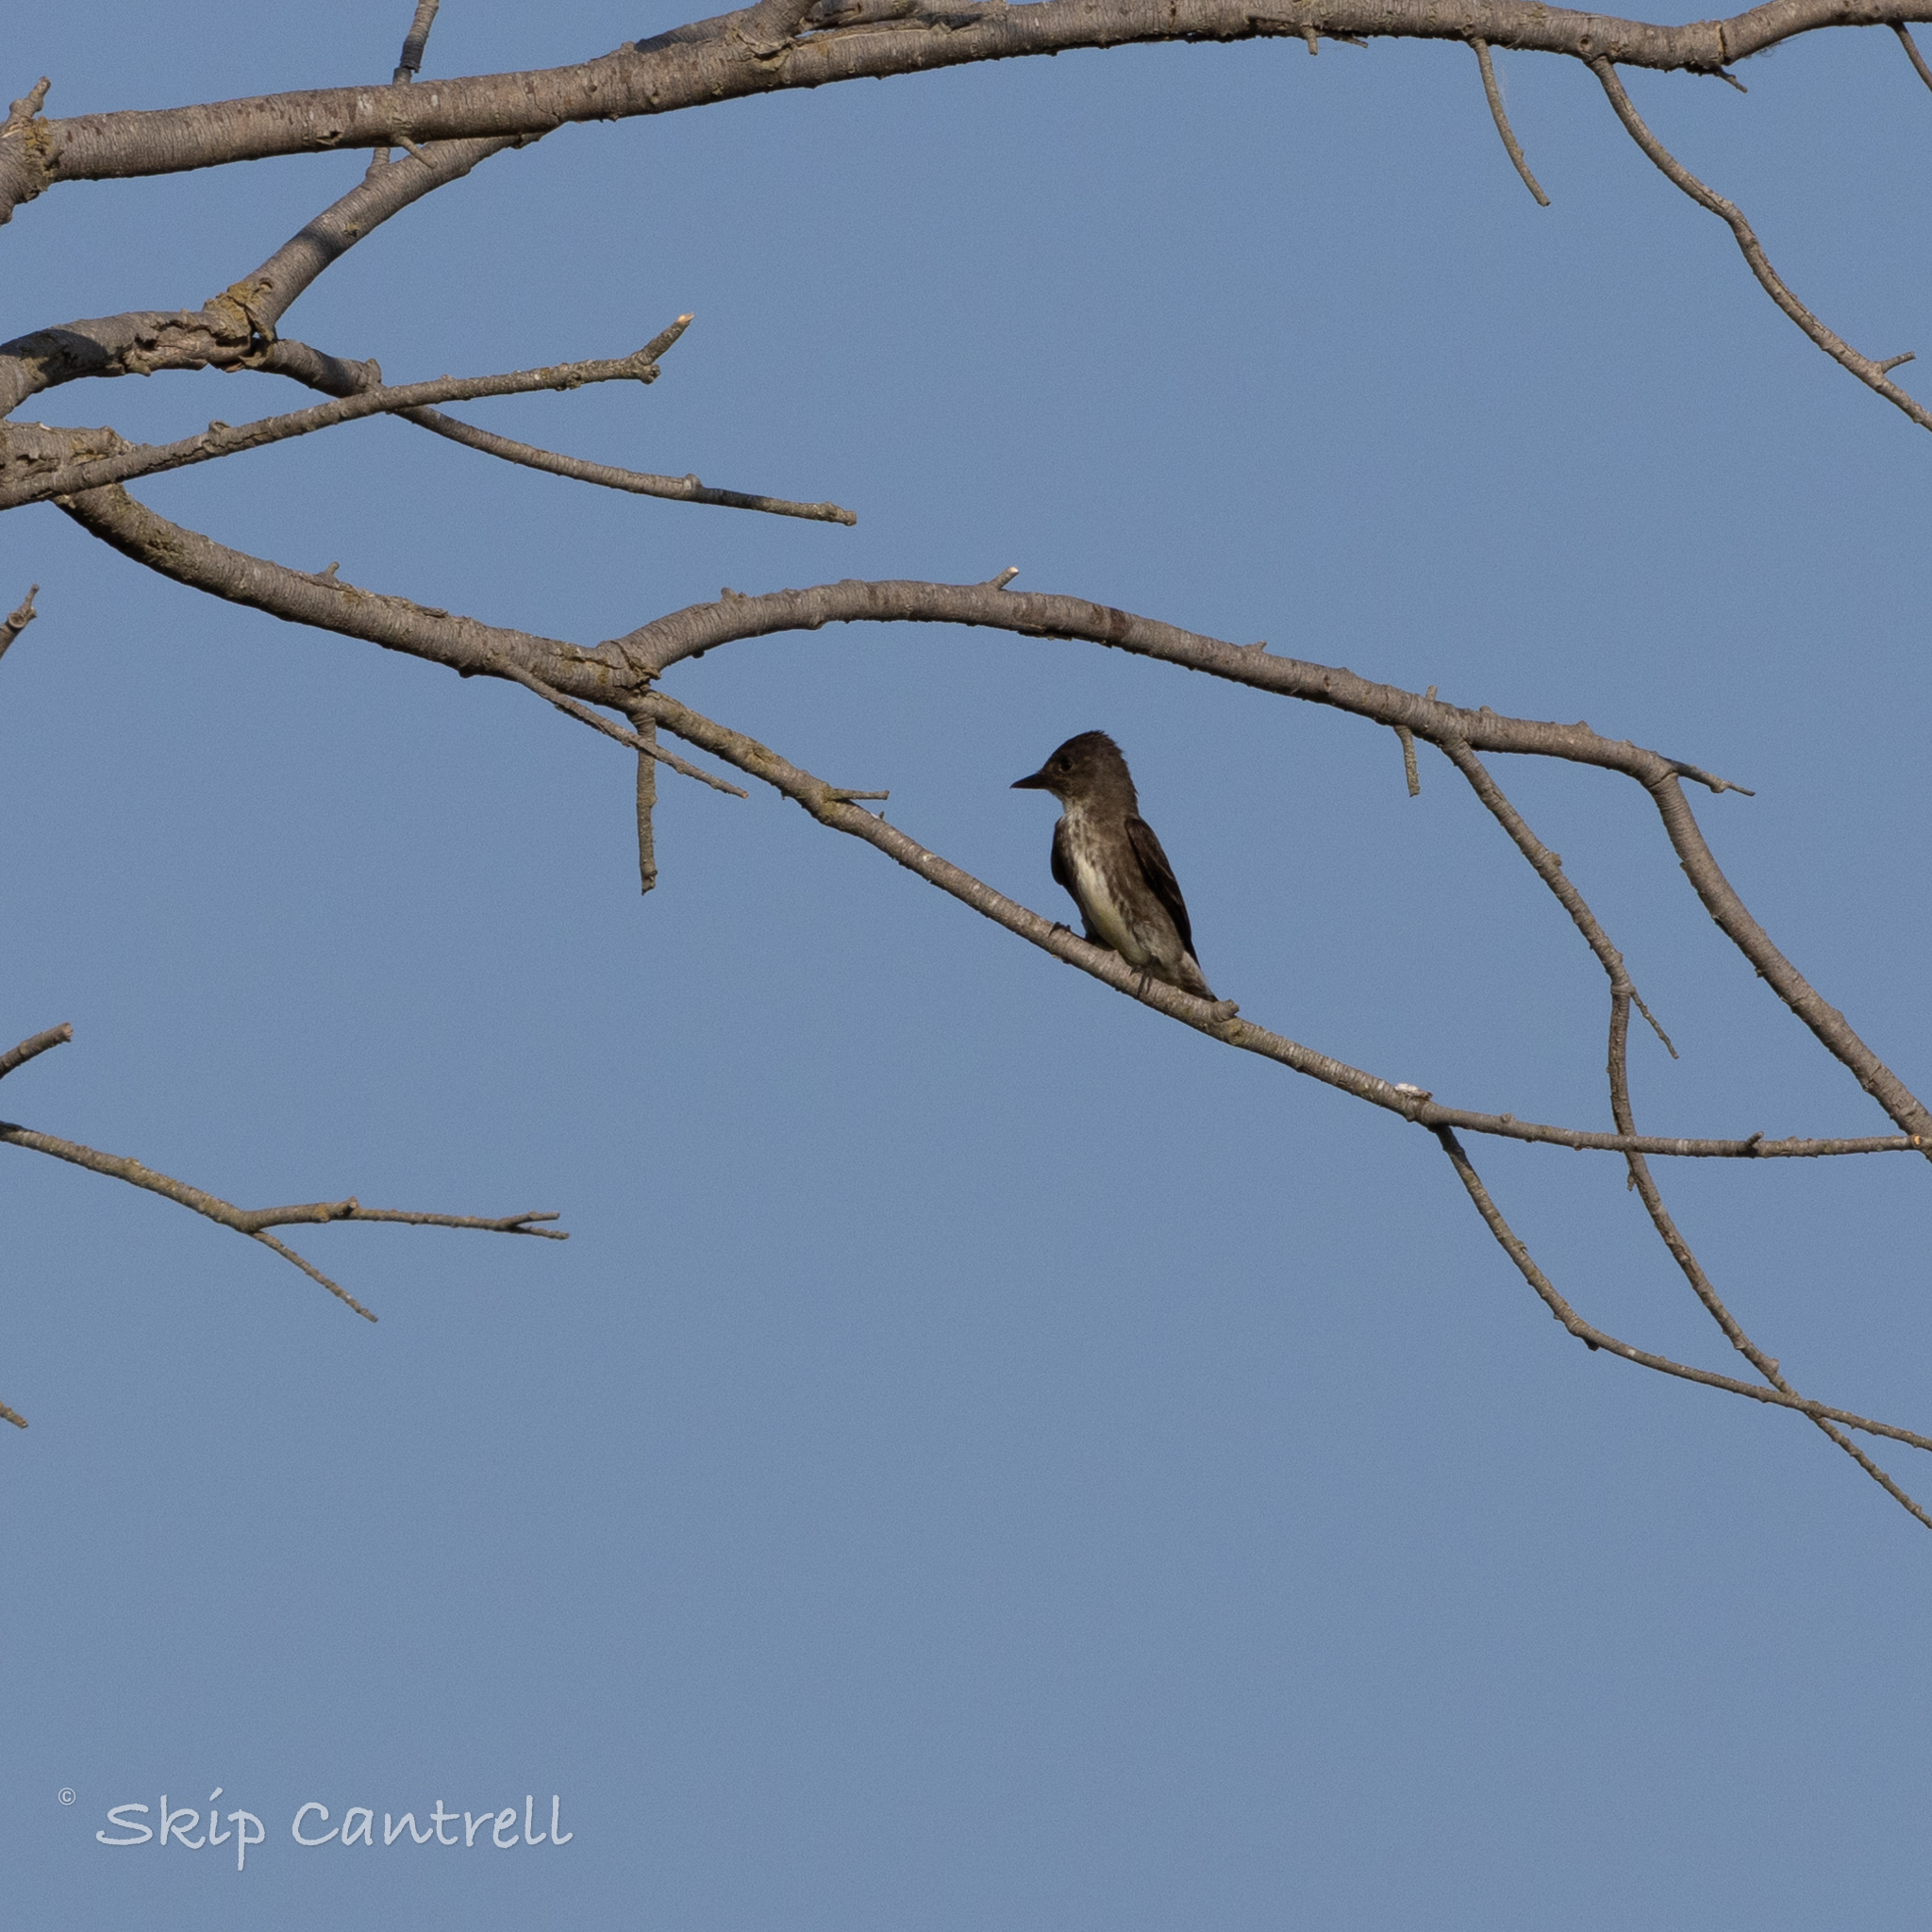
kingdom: Animalia
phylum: Chordata
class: Aves
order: Passeriformes
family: Tyrannidae
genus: Contopus
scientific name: Contopus cooperi
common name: Olive-sided flycatcher
